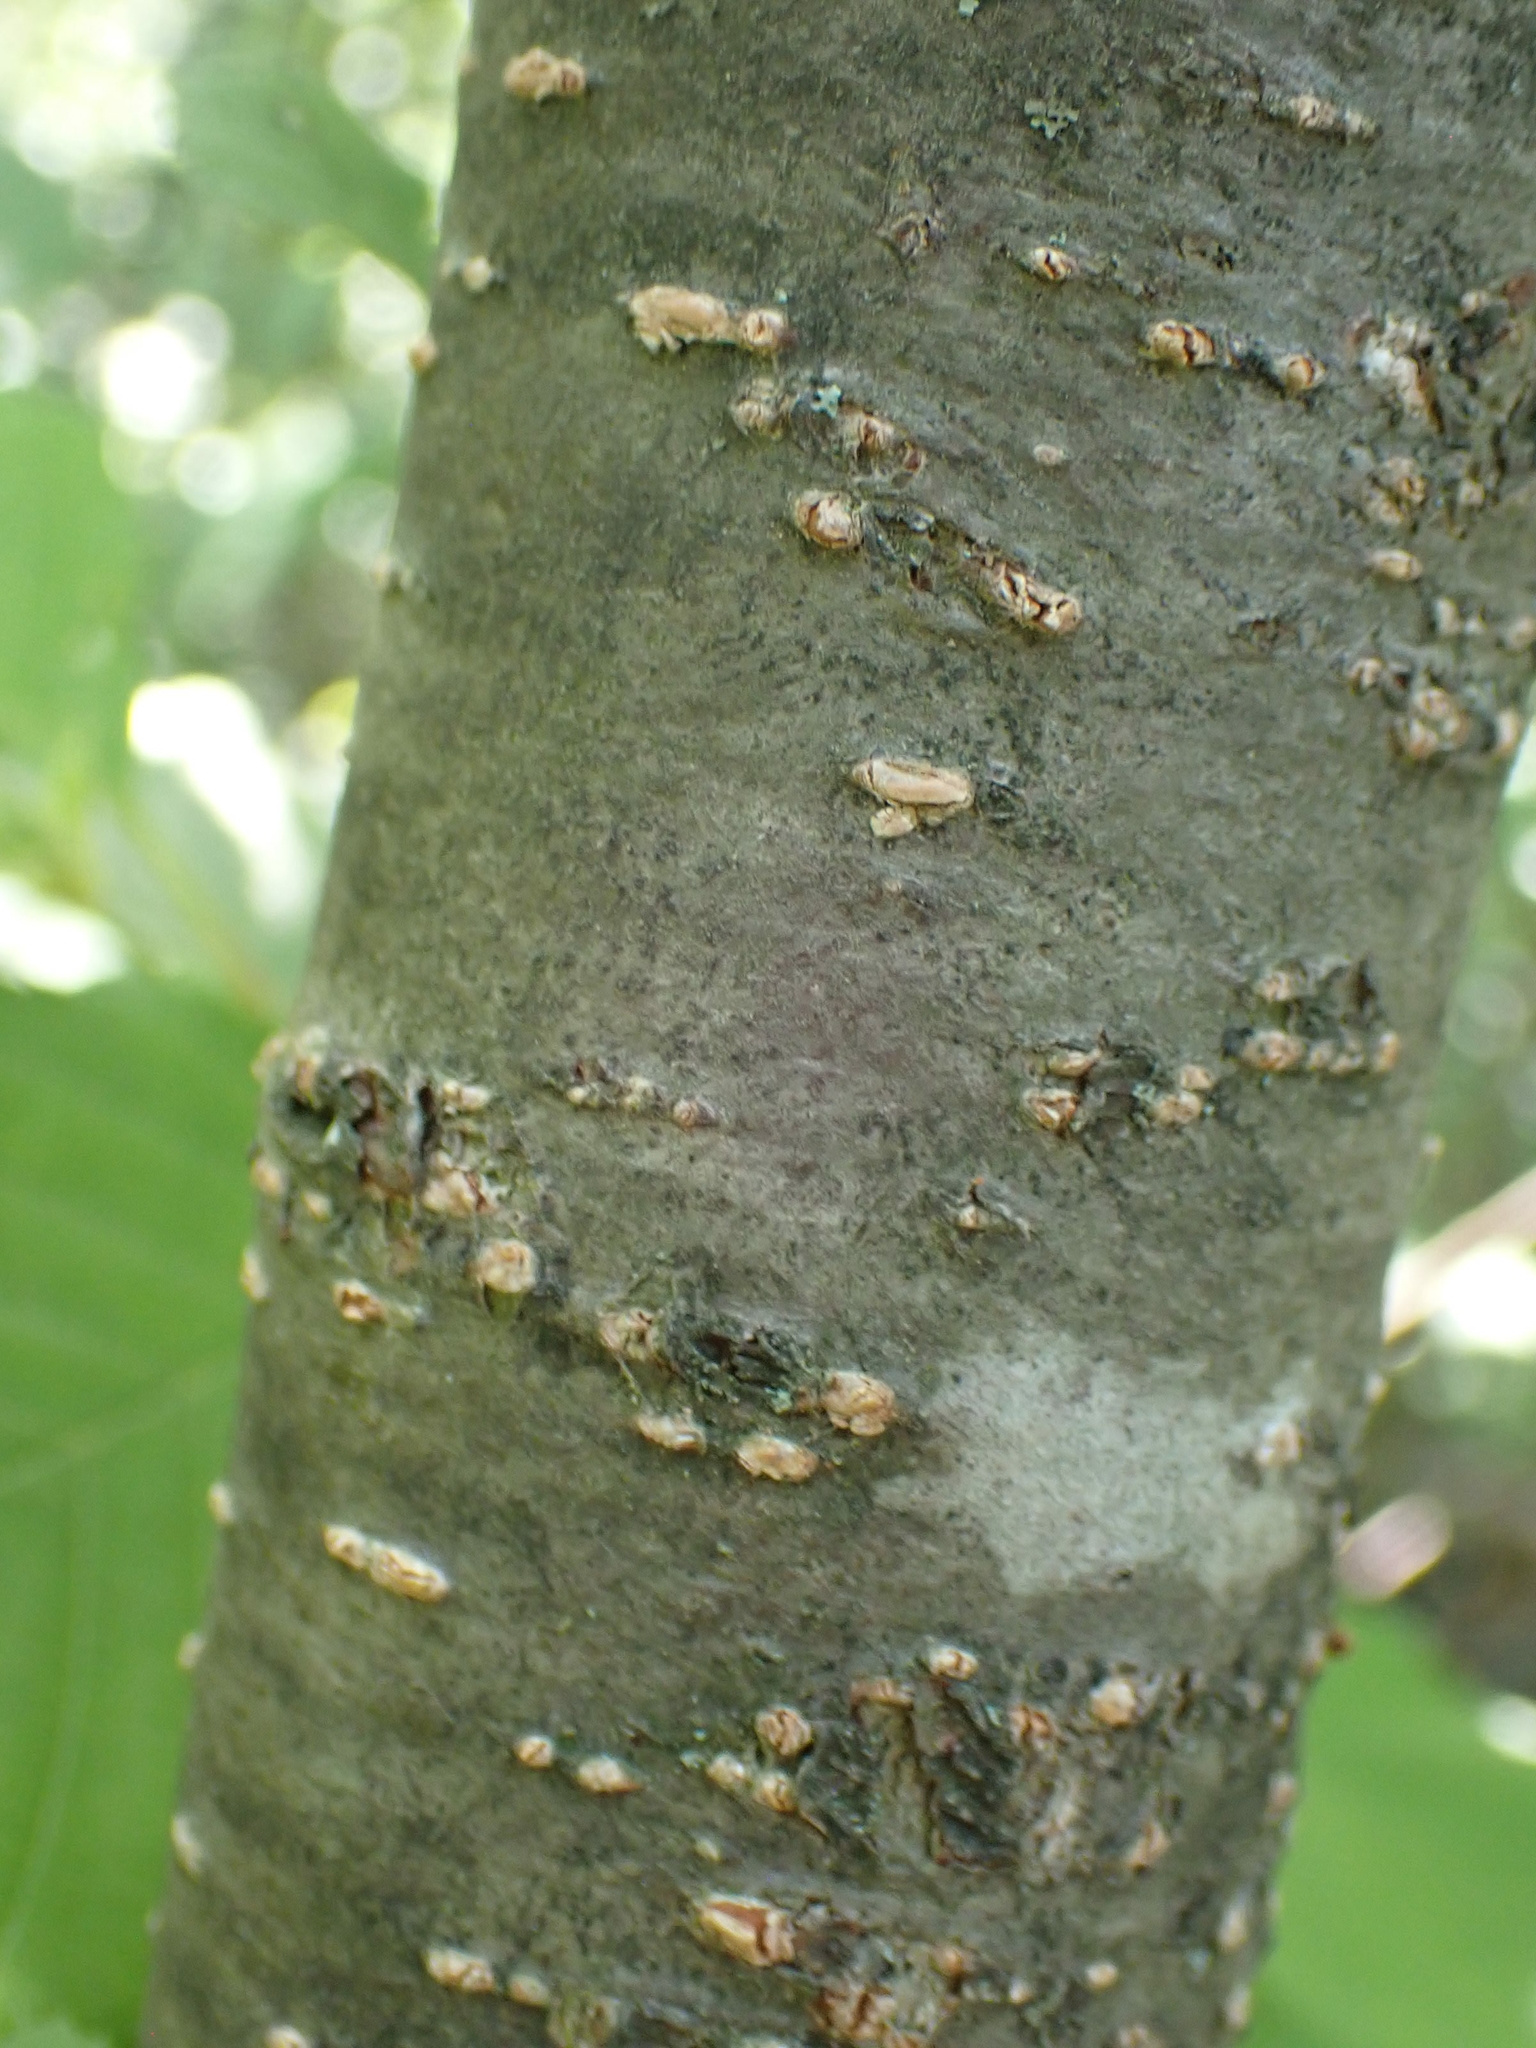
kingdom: Plantae
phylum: Tracheophyta
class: Magnoliopsida
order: Fagales
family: Betulaceae
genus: Alnus
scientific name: Alnus incana
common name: Grey alder
